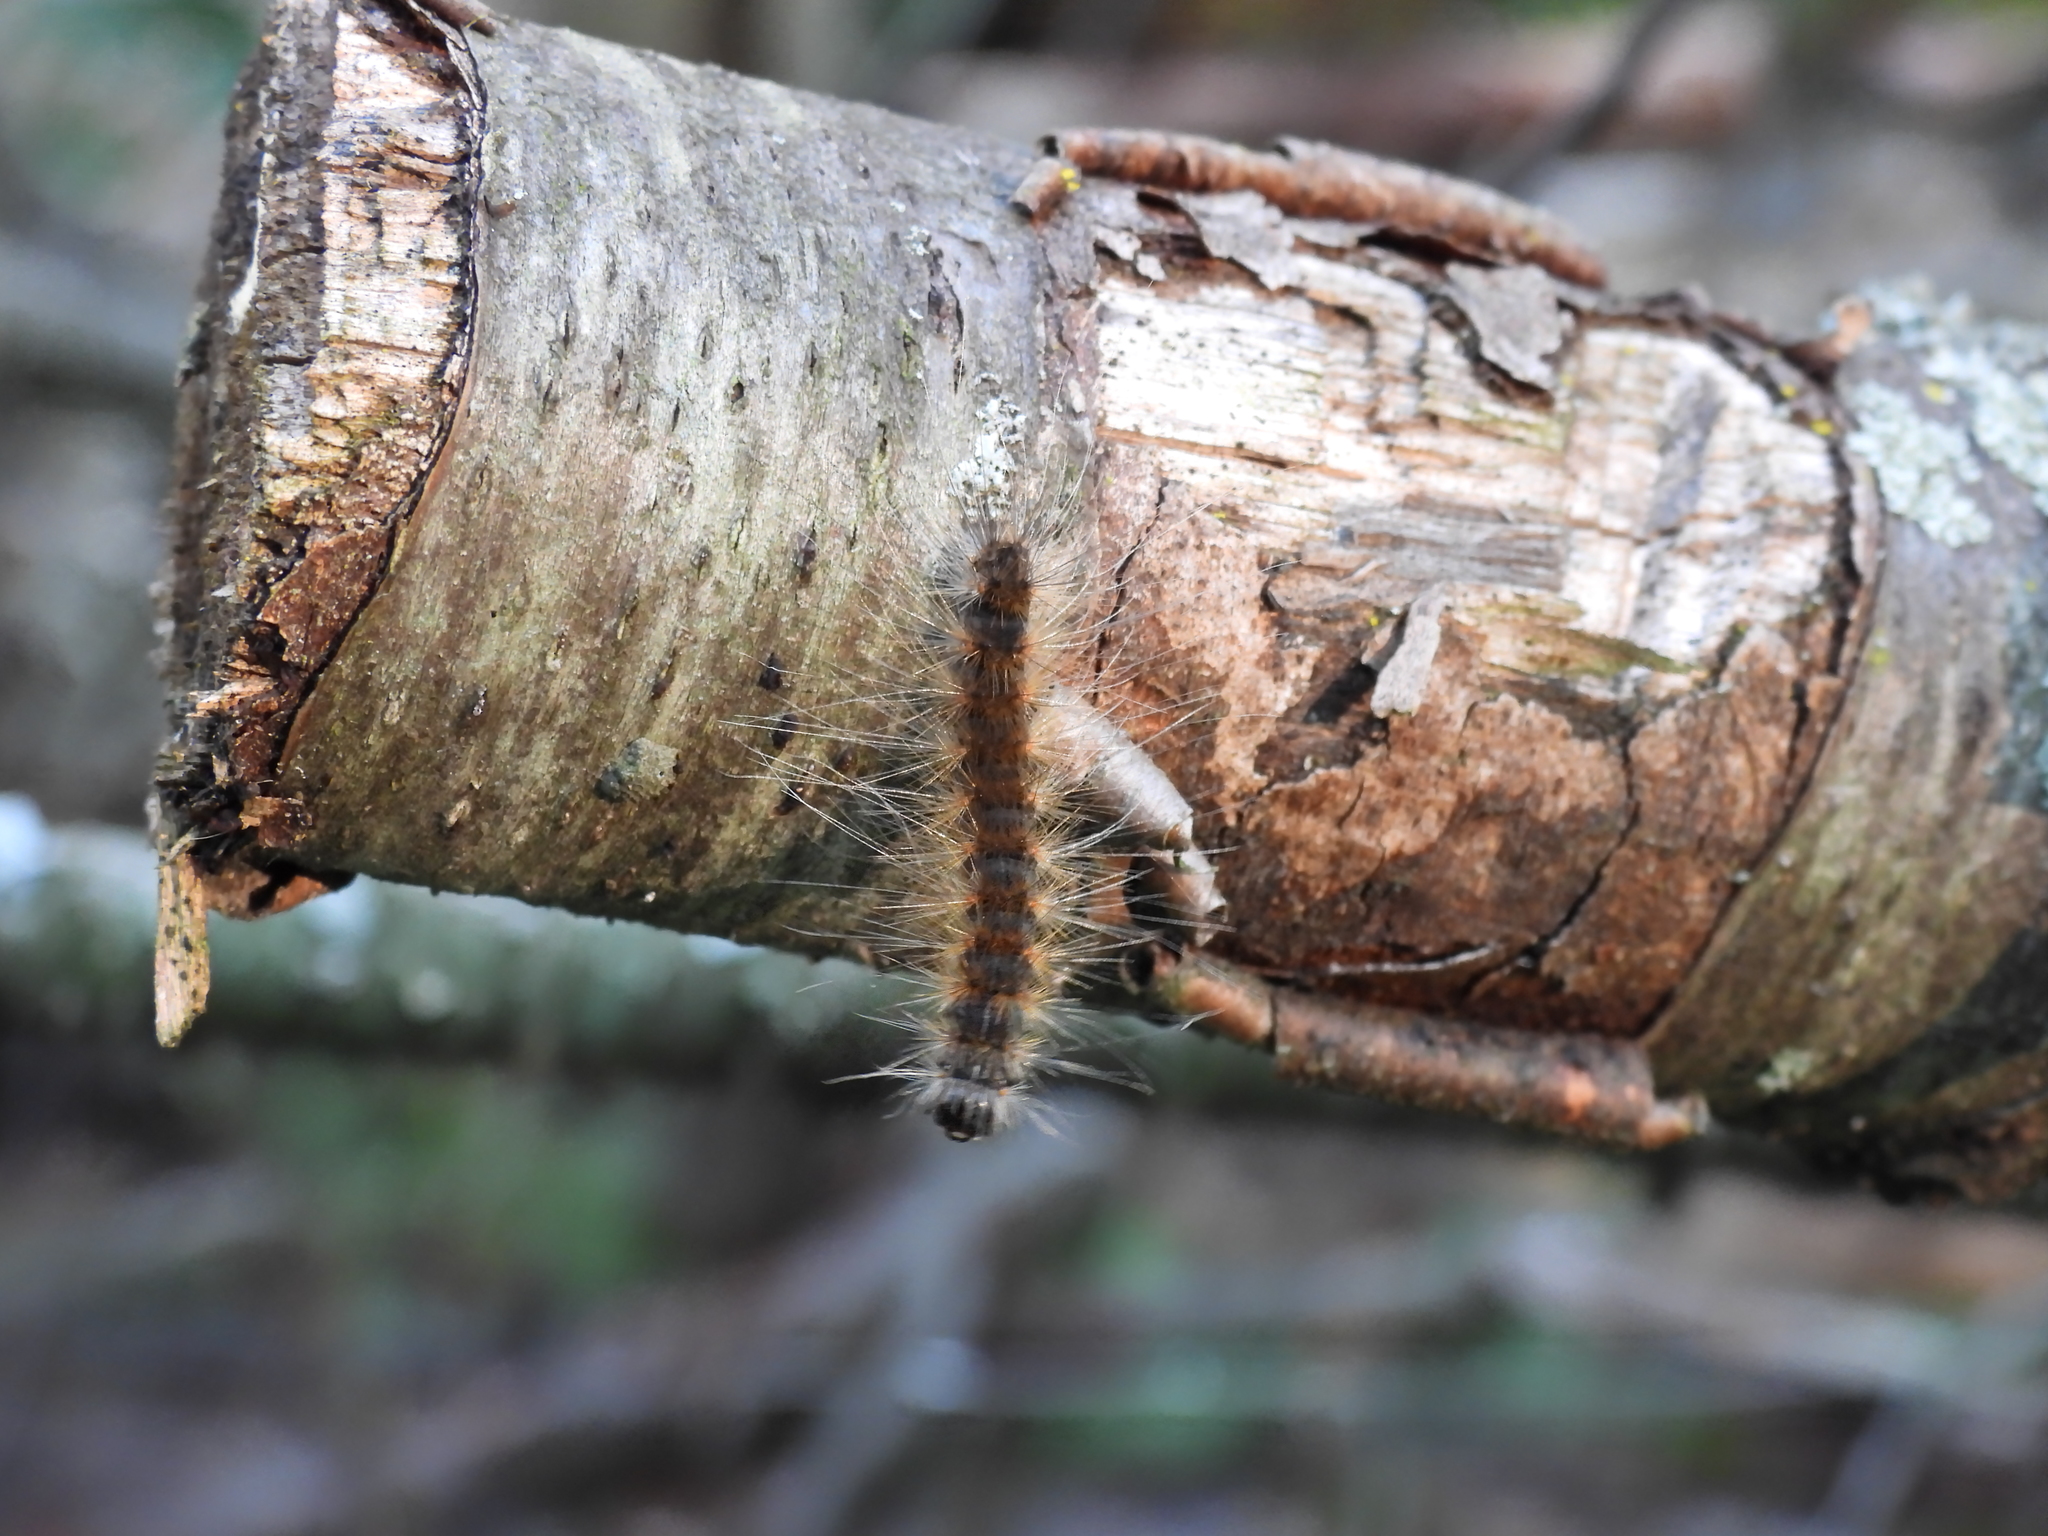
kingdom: Animalia
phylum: Arthropoda
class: Insecta
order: Lepidoptera
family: Erebidae
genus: Hyphantria
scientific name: Hyphantria cunea
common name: American white moth
